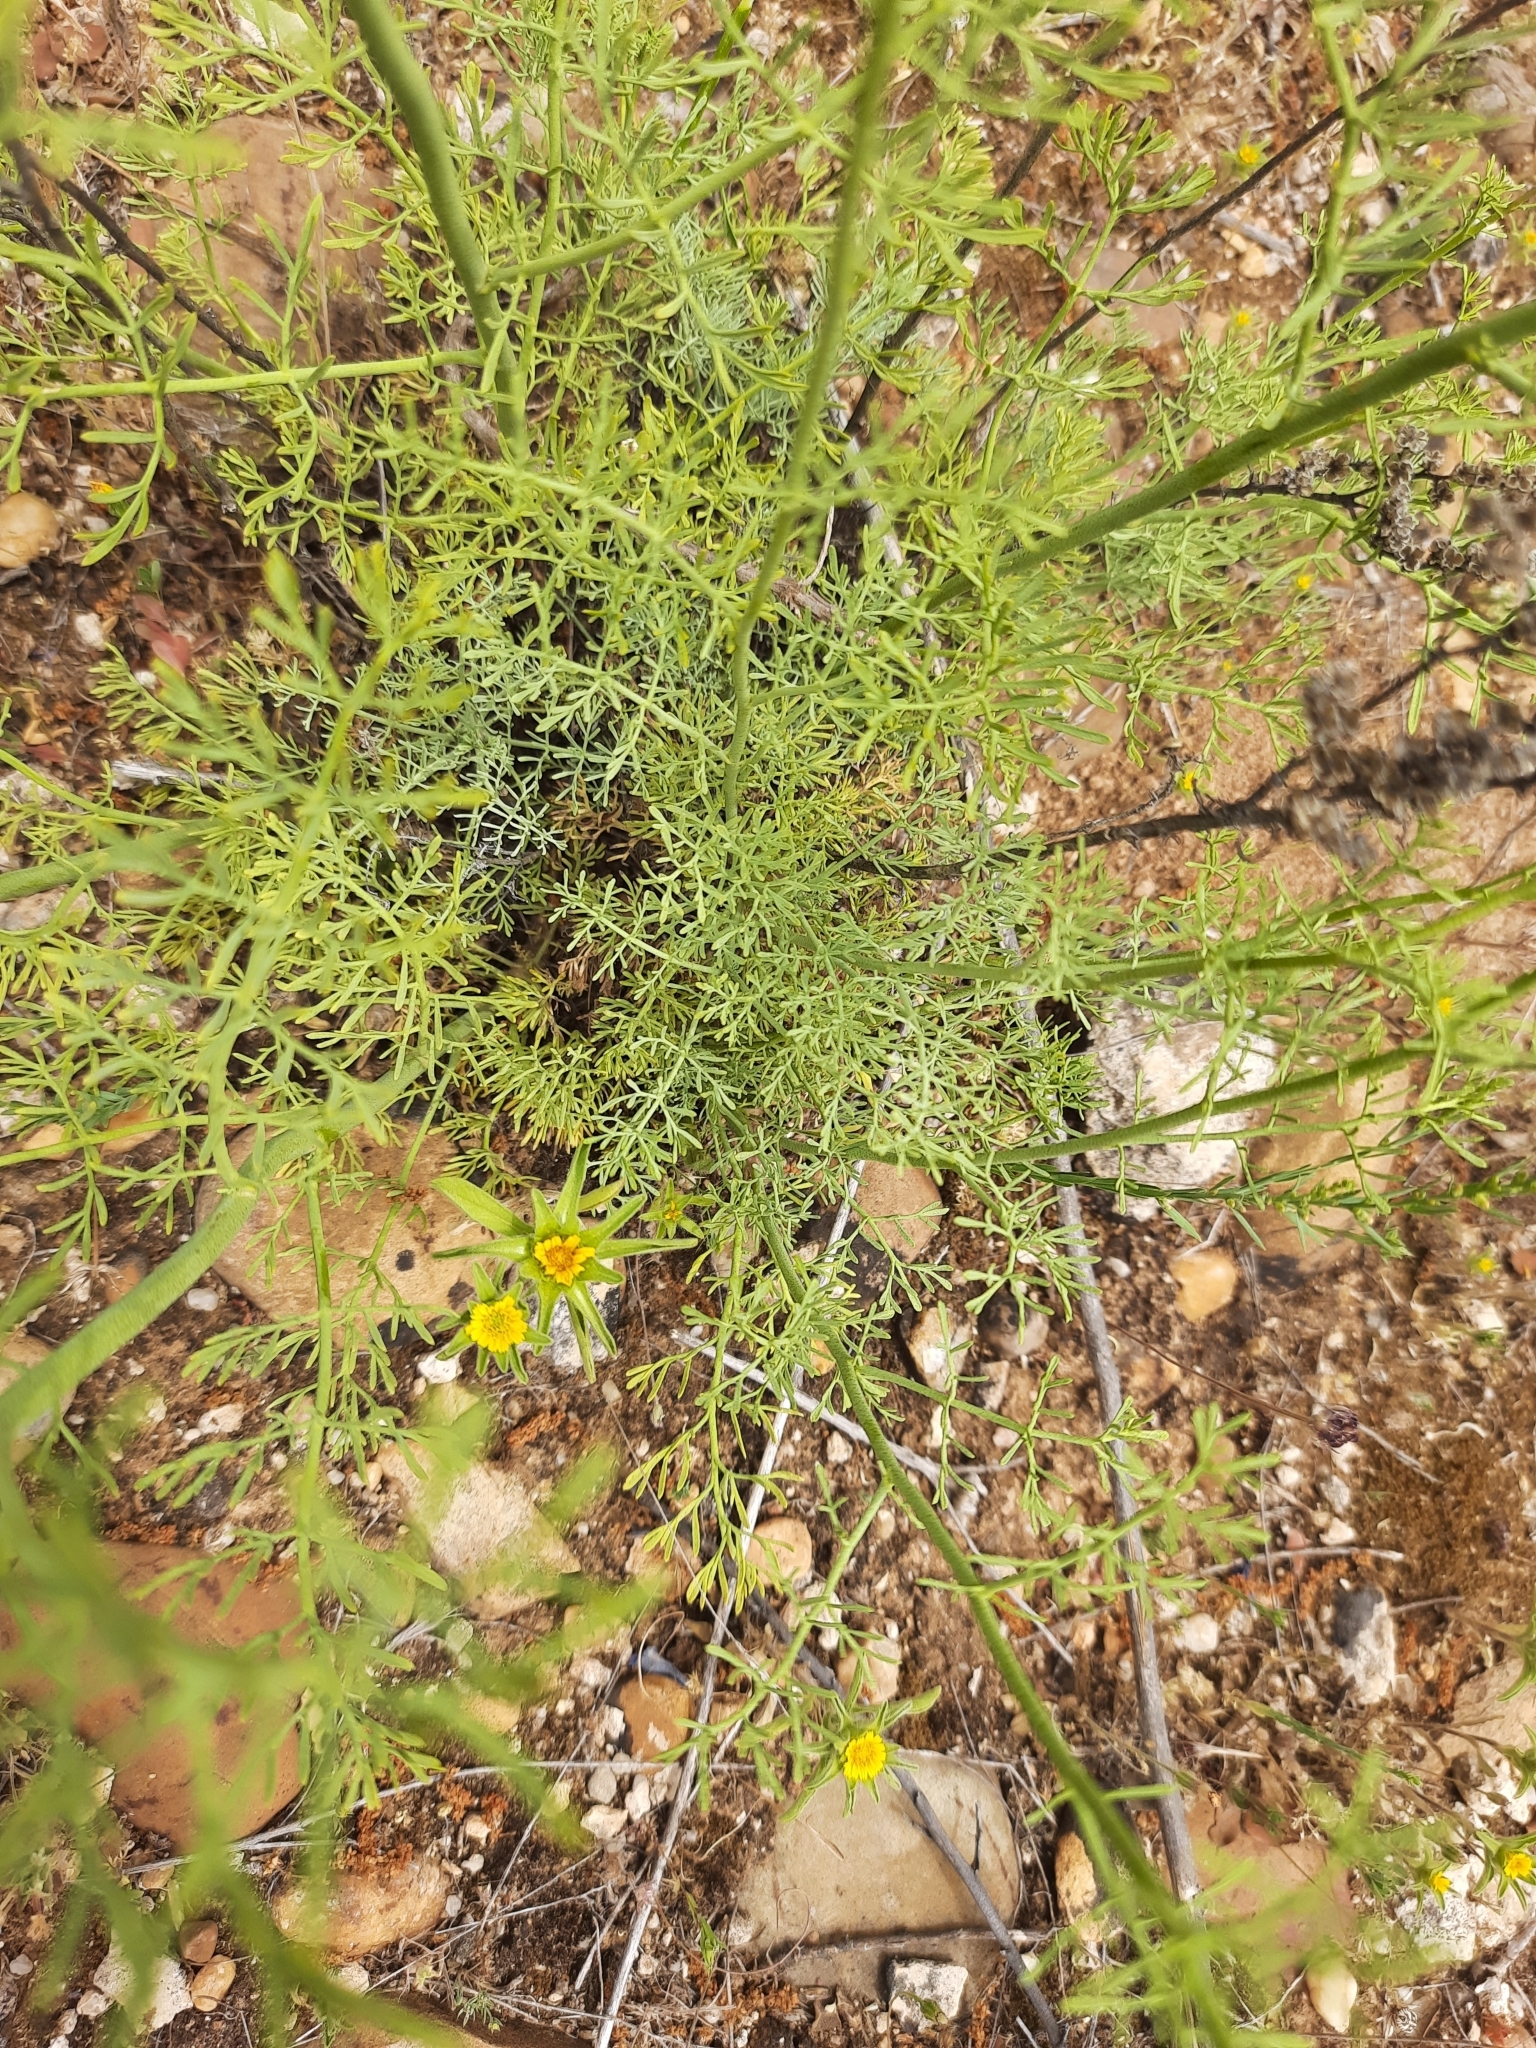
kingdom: Plantae
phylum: Tracheophyta
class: Magnoliopsida
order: Sapindales
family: Rutaceae
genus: Ruta
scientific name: Ruta montana
